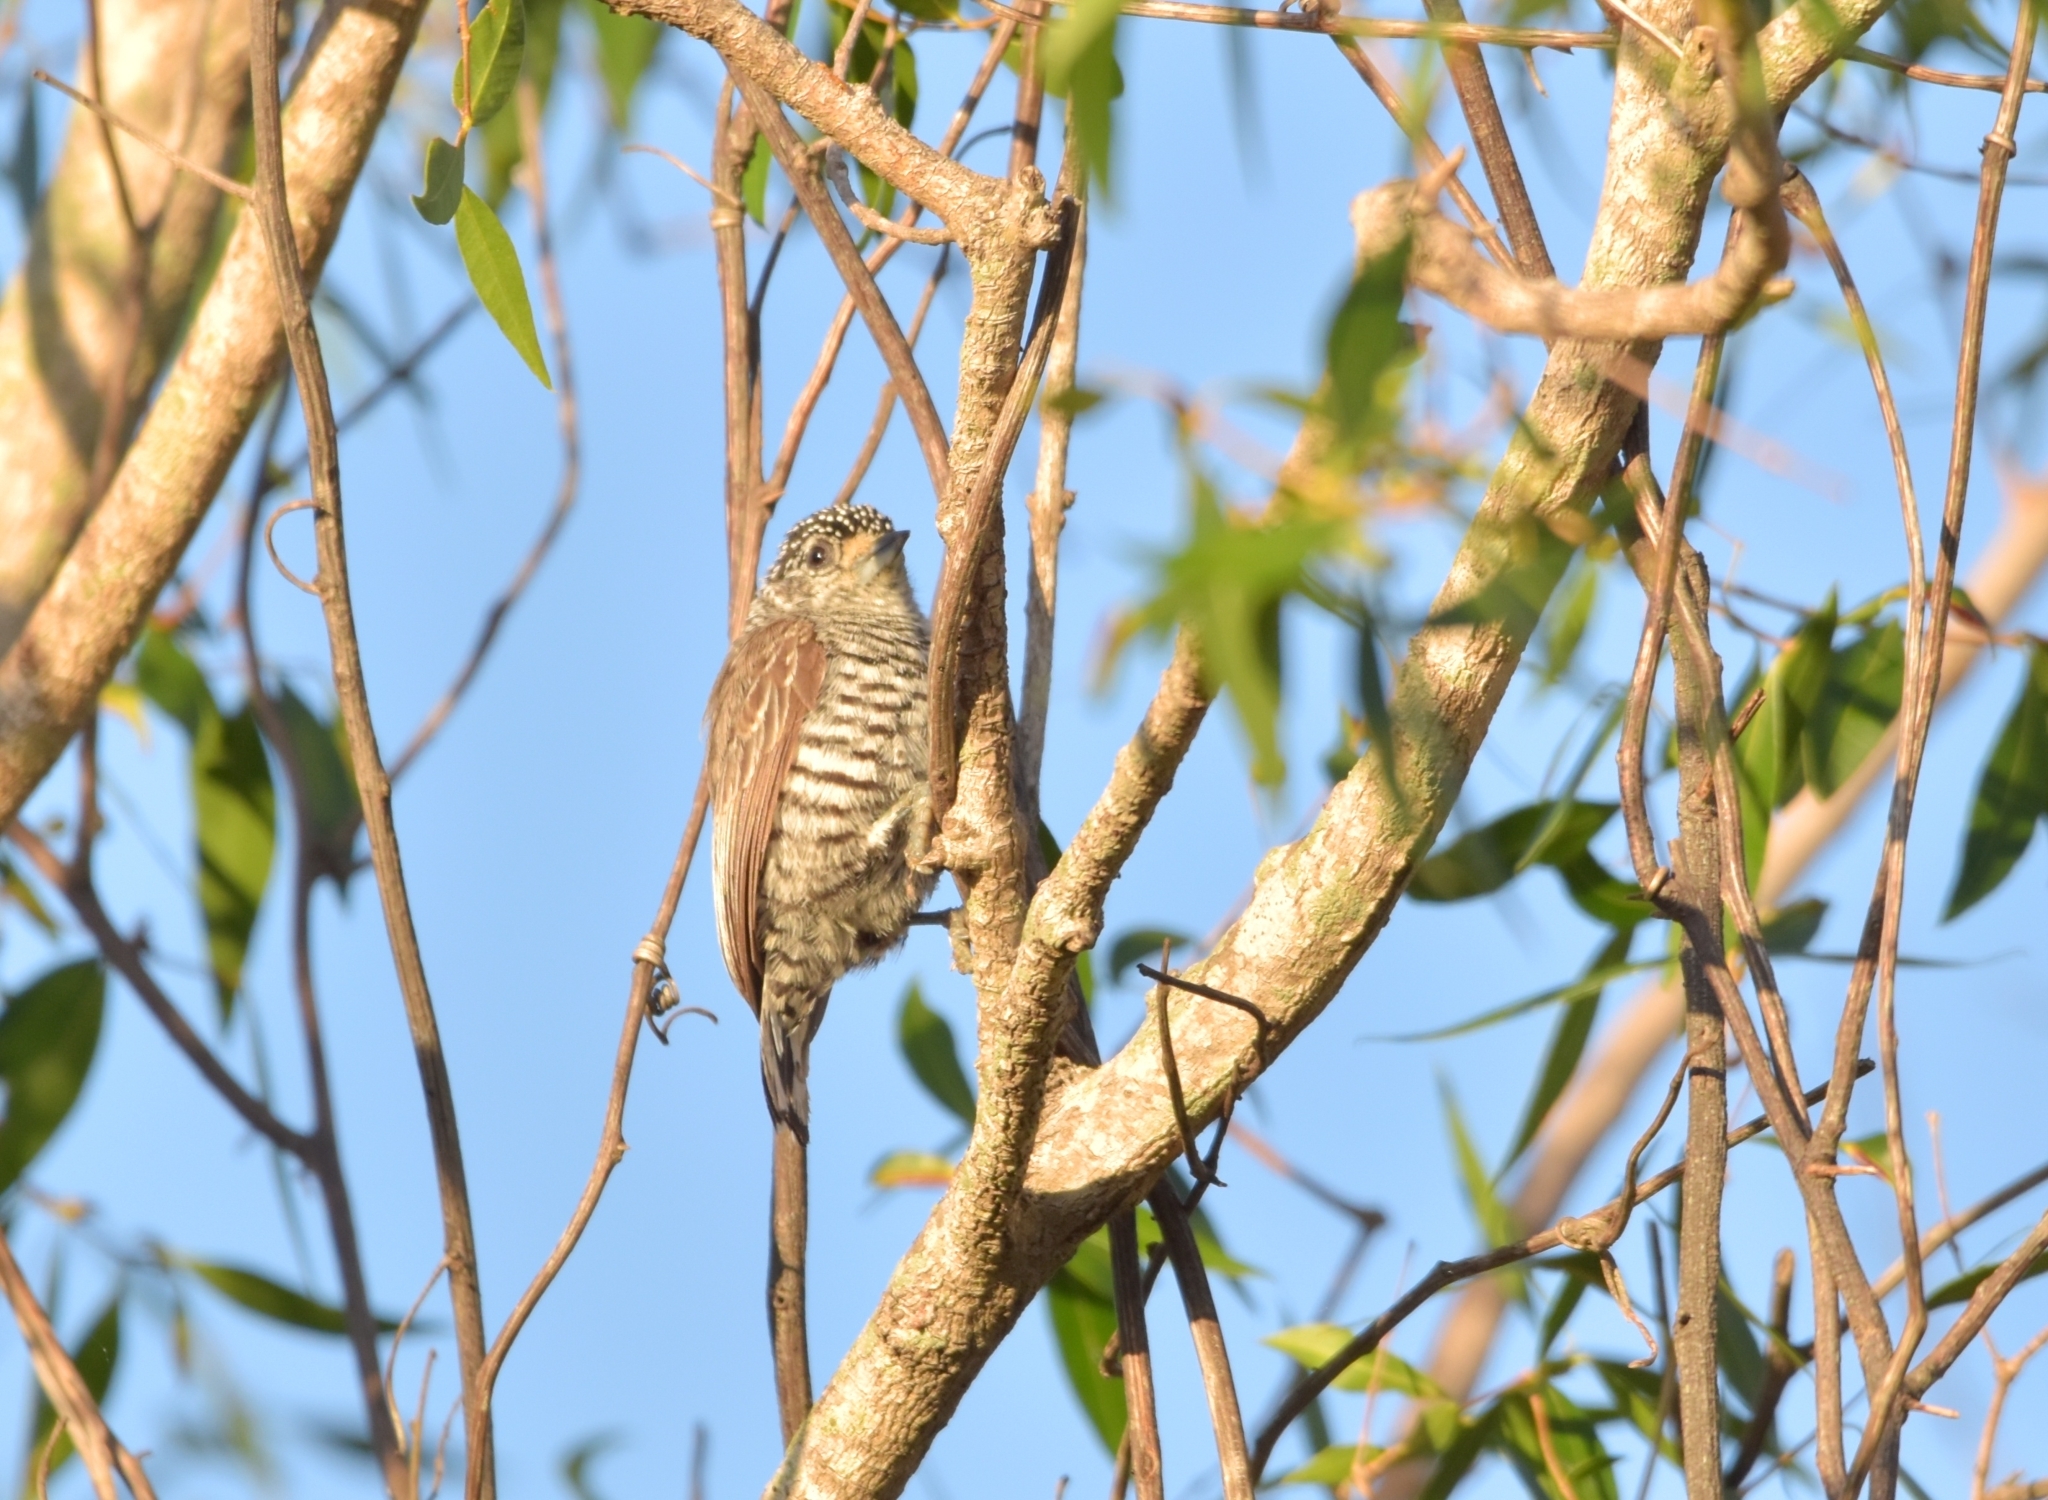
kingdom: Animalia
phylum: Chordata
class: Aves
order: Piciformes
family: Picidae
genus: Picumnus
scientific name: Picumnus cirratus
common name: White-barred piculet
